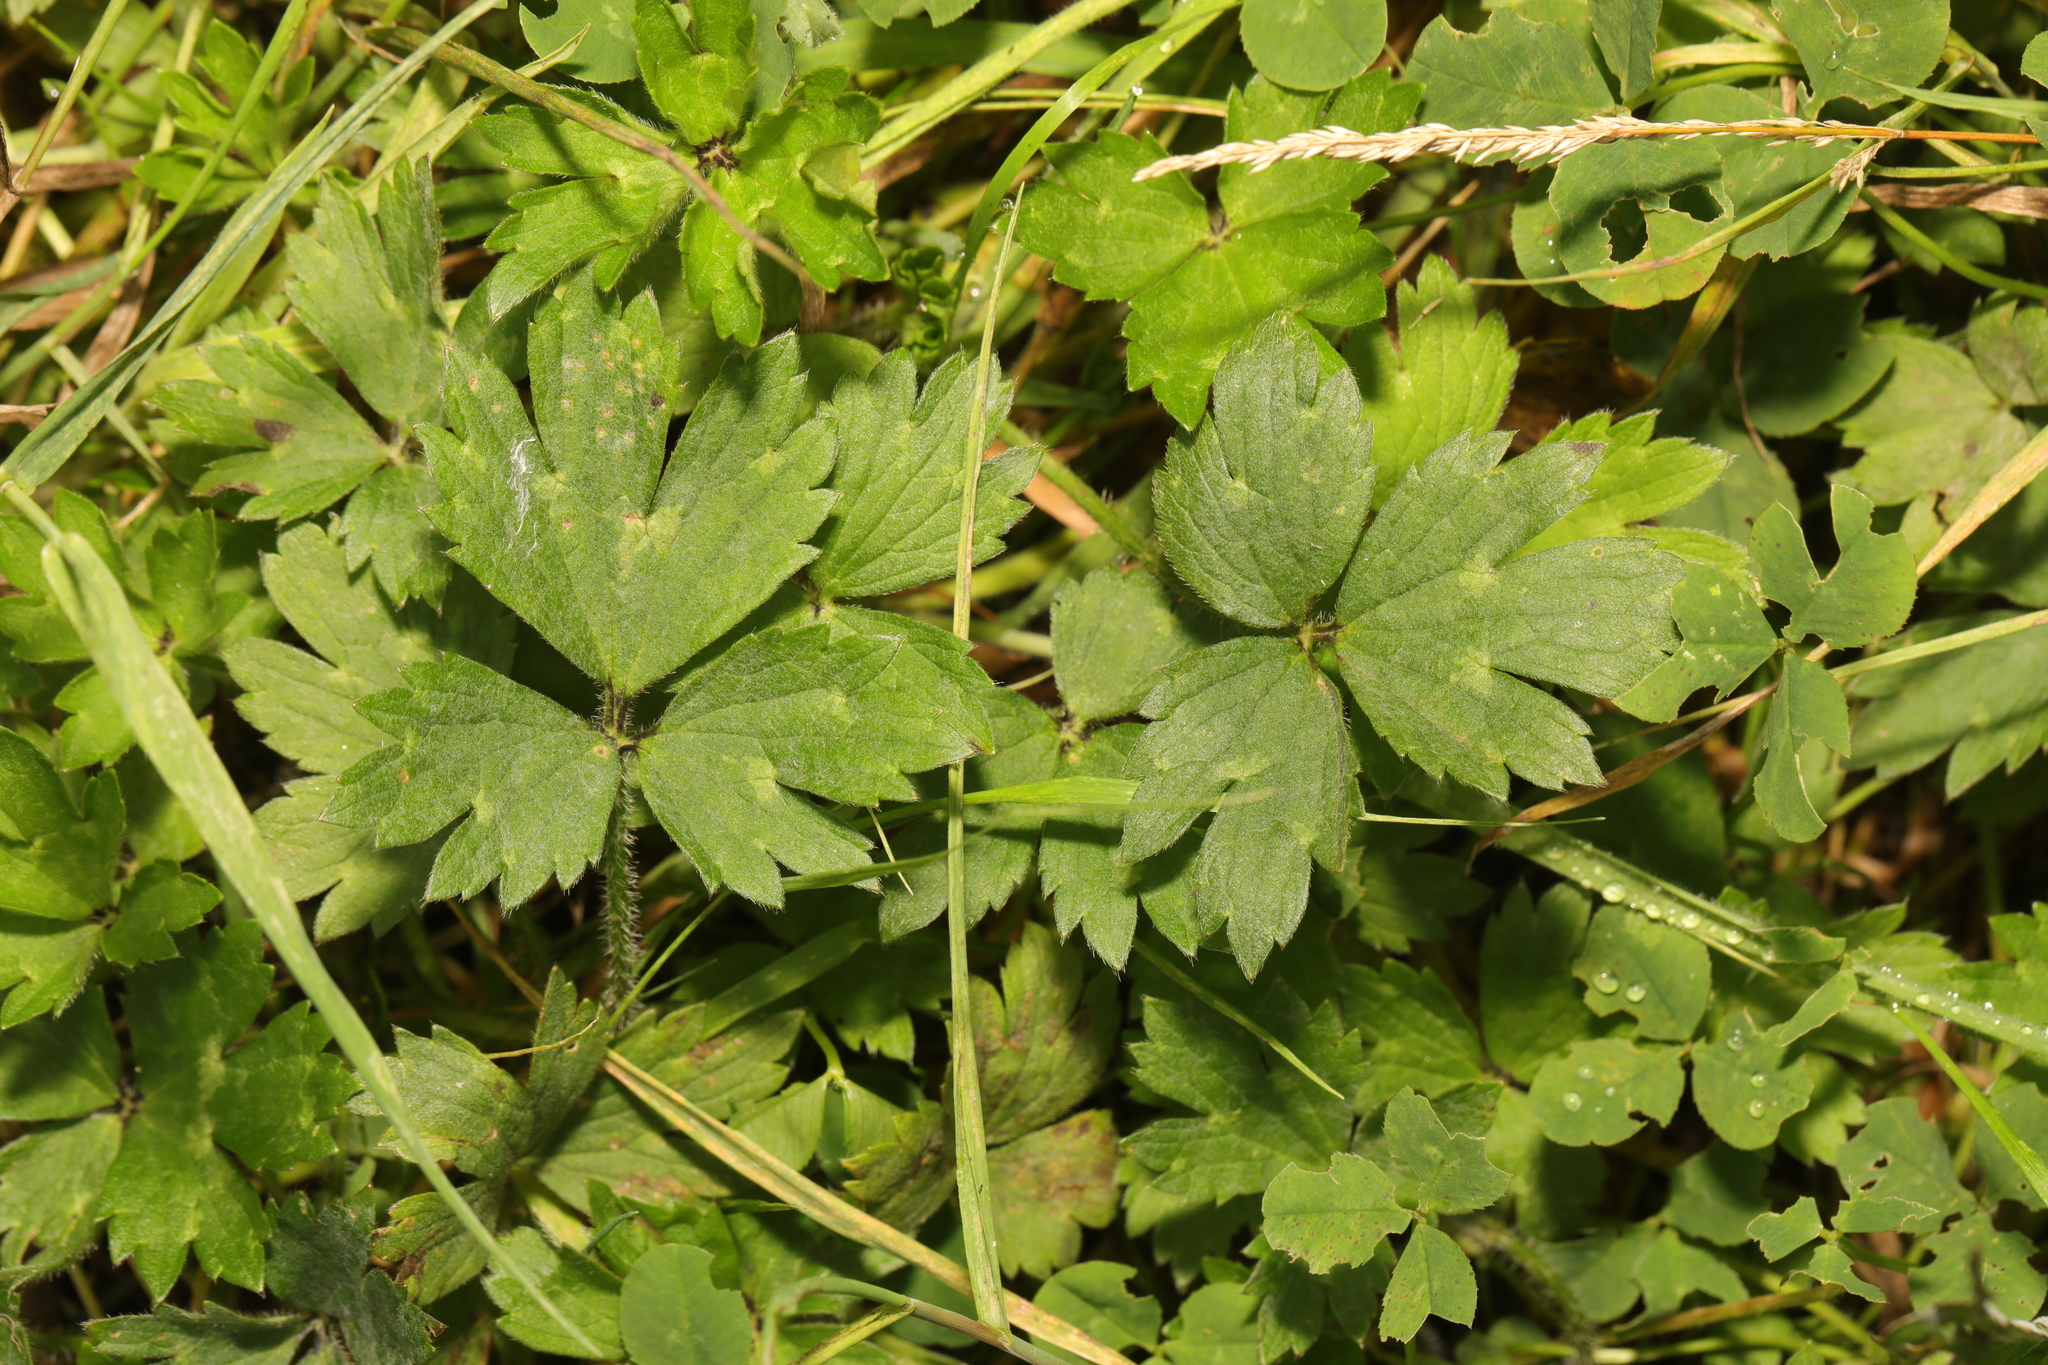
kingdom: Plantae
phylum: Tracheophyta
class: Magnoliopsida
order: Ranunculales
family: Ranunculaceae
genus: Ranunculus
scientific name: Ranunculus repens
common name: Creeping buttercup
